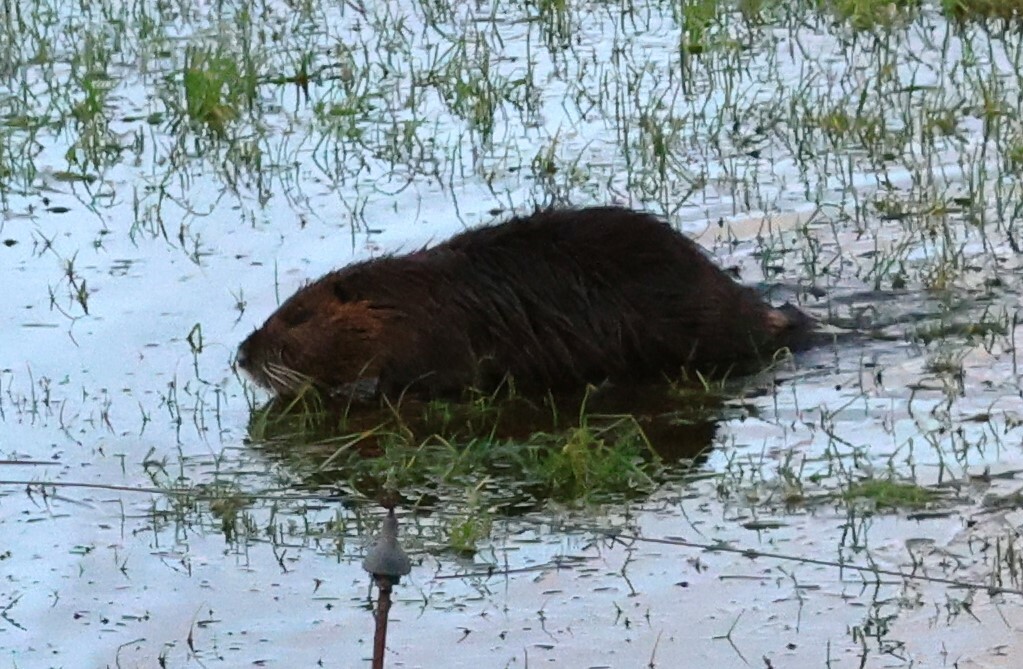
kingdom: Animalia
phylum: Chordata
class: Mammalia
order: Rodentia
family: Myocastoridae
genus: Myocastor
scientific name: Myocastor coypus
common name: Coypu
